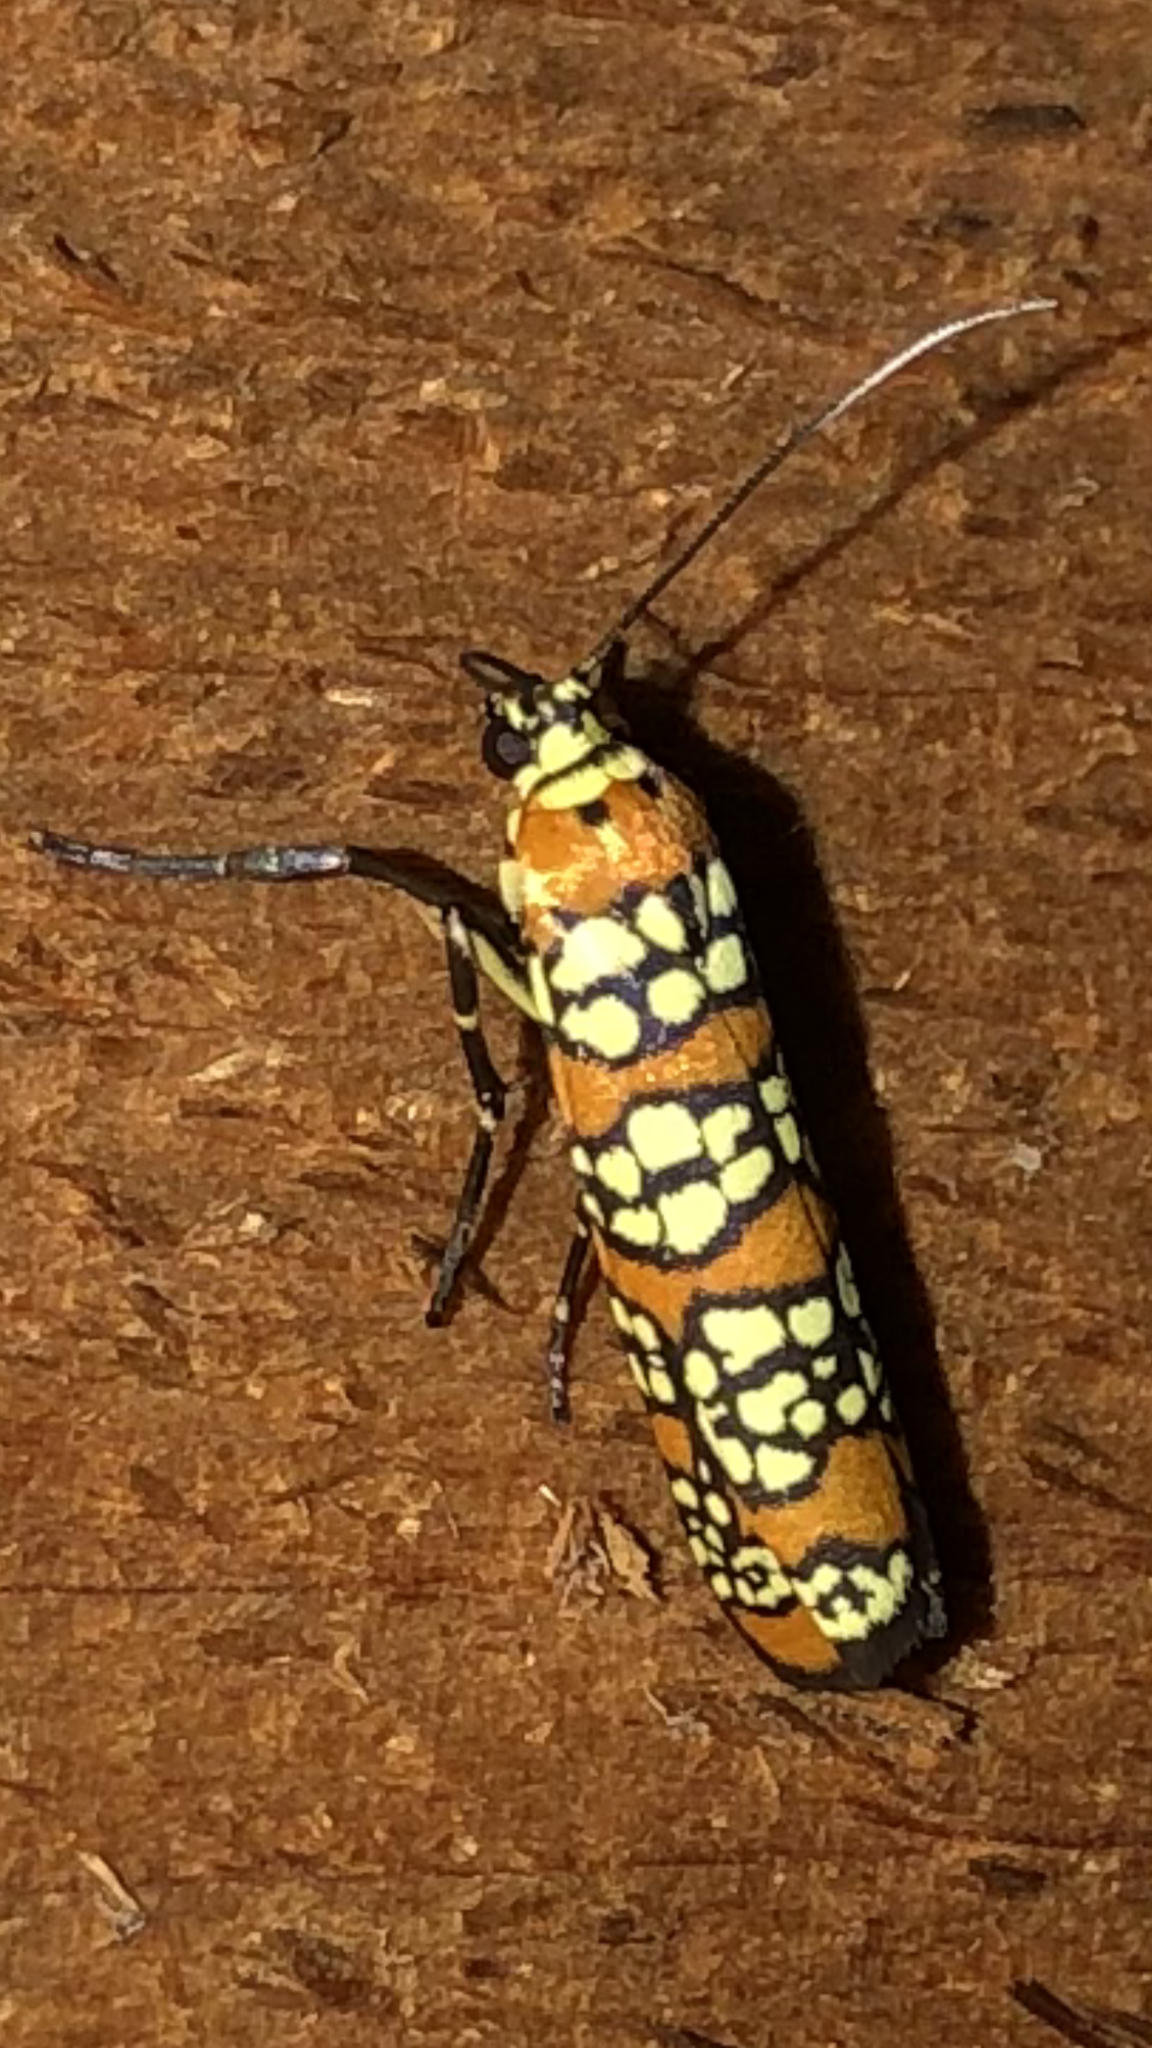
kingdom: Animalia
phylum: Arthropoda
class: Insecta
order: Lepidoptera
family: Attevidae
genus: Atteva
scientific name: Atteva punctella
